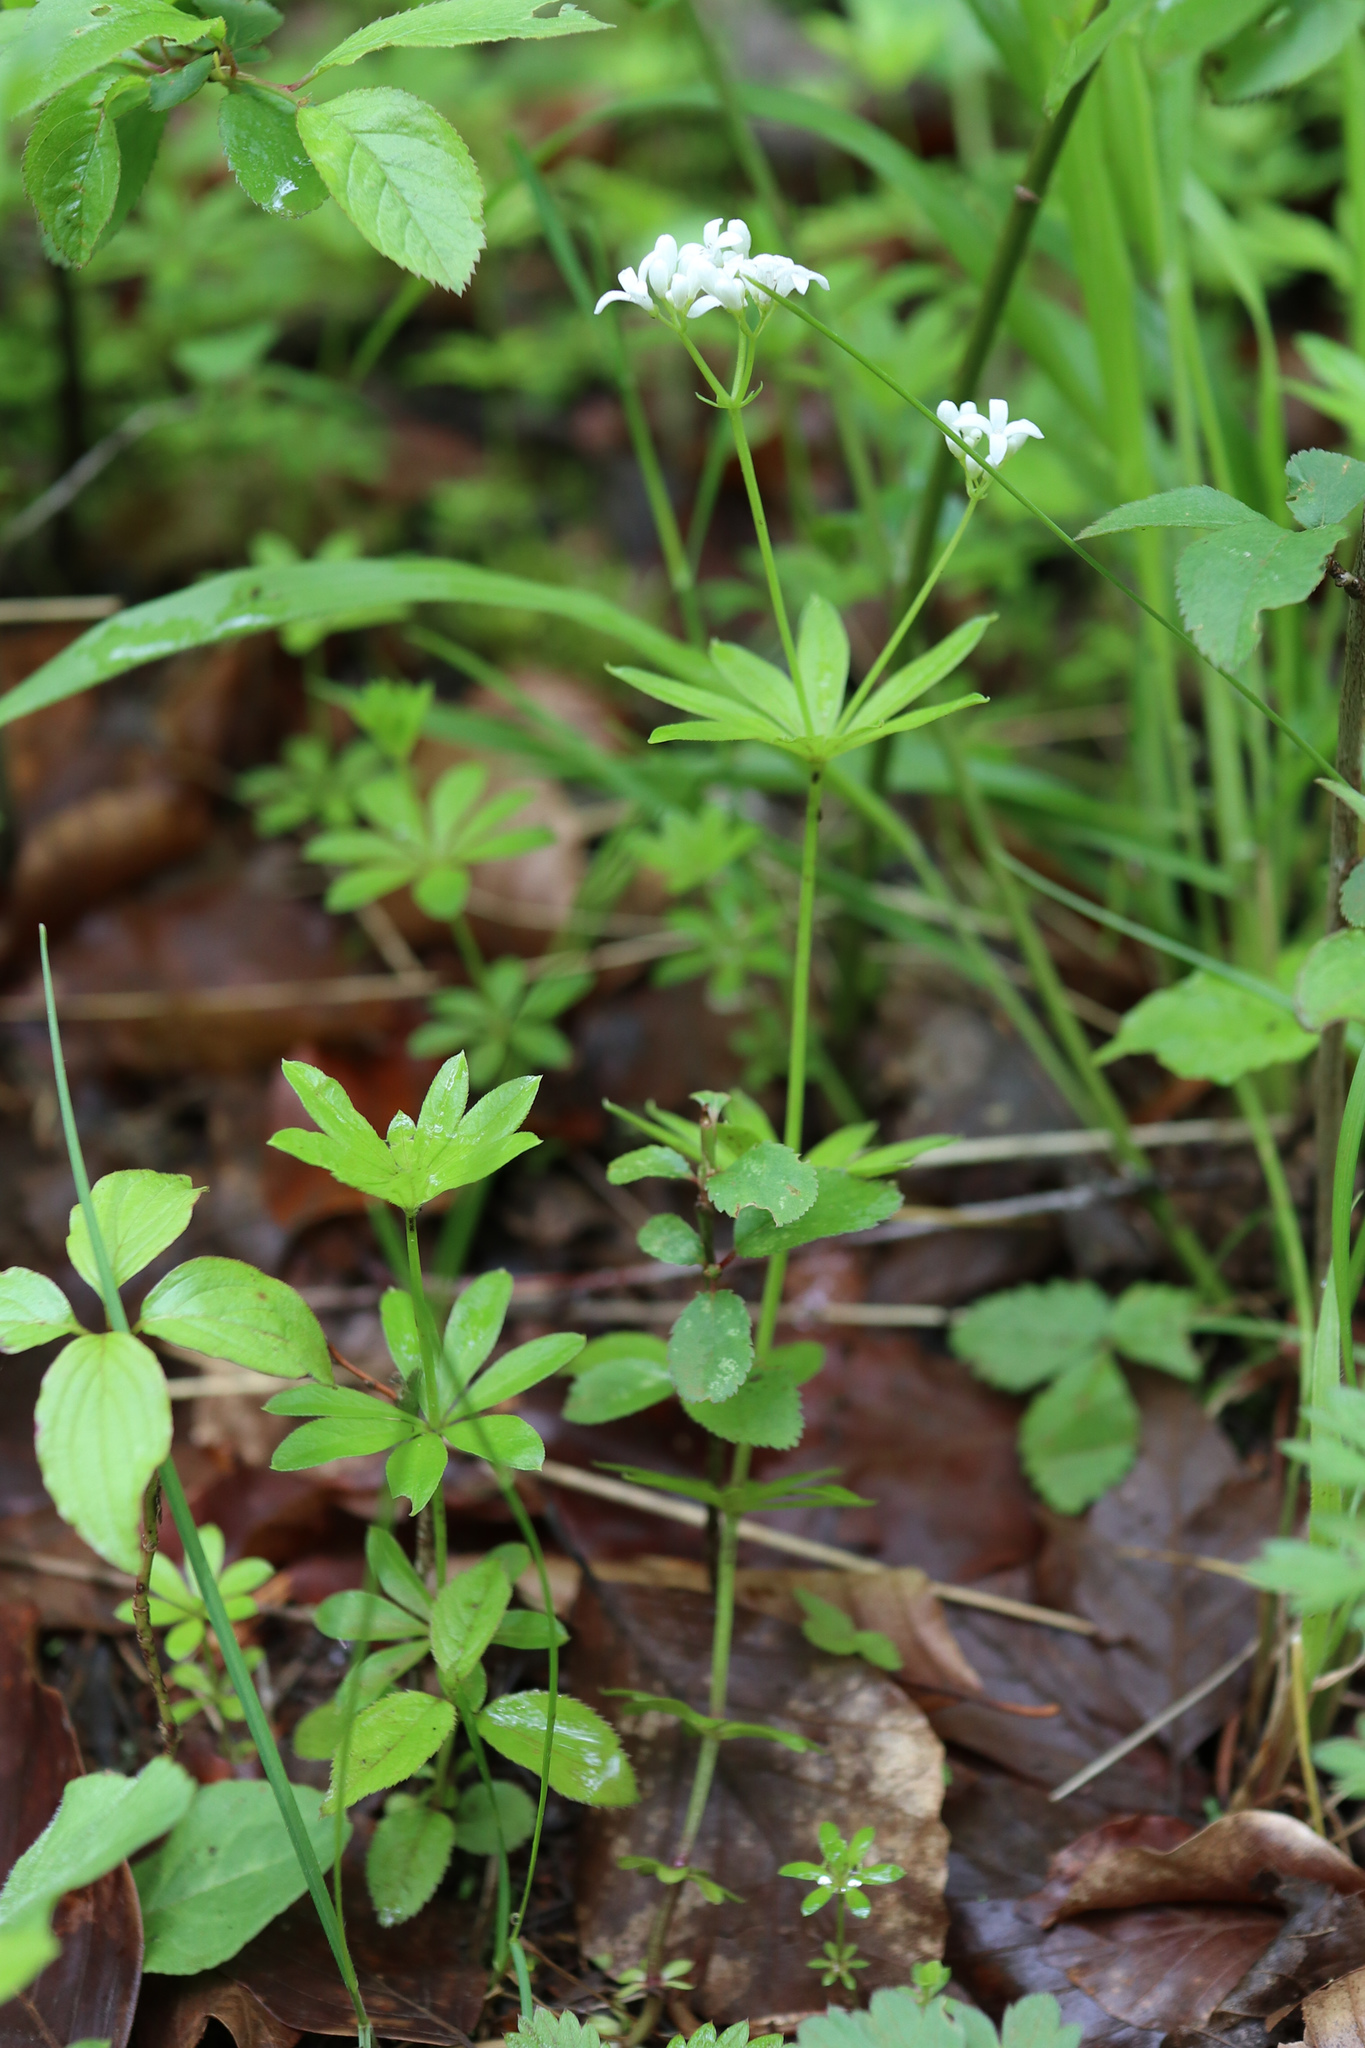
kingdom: Plantae
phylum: Tracheophyta
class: Magnoliopsida
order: Gentianales
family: Rubiaceae
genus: Galium
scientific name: Galium odoratum
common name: Sweet woodruff
